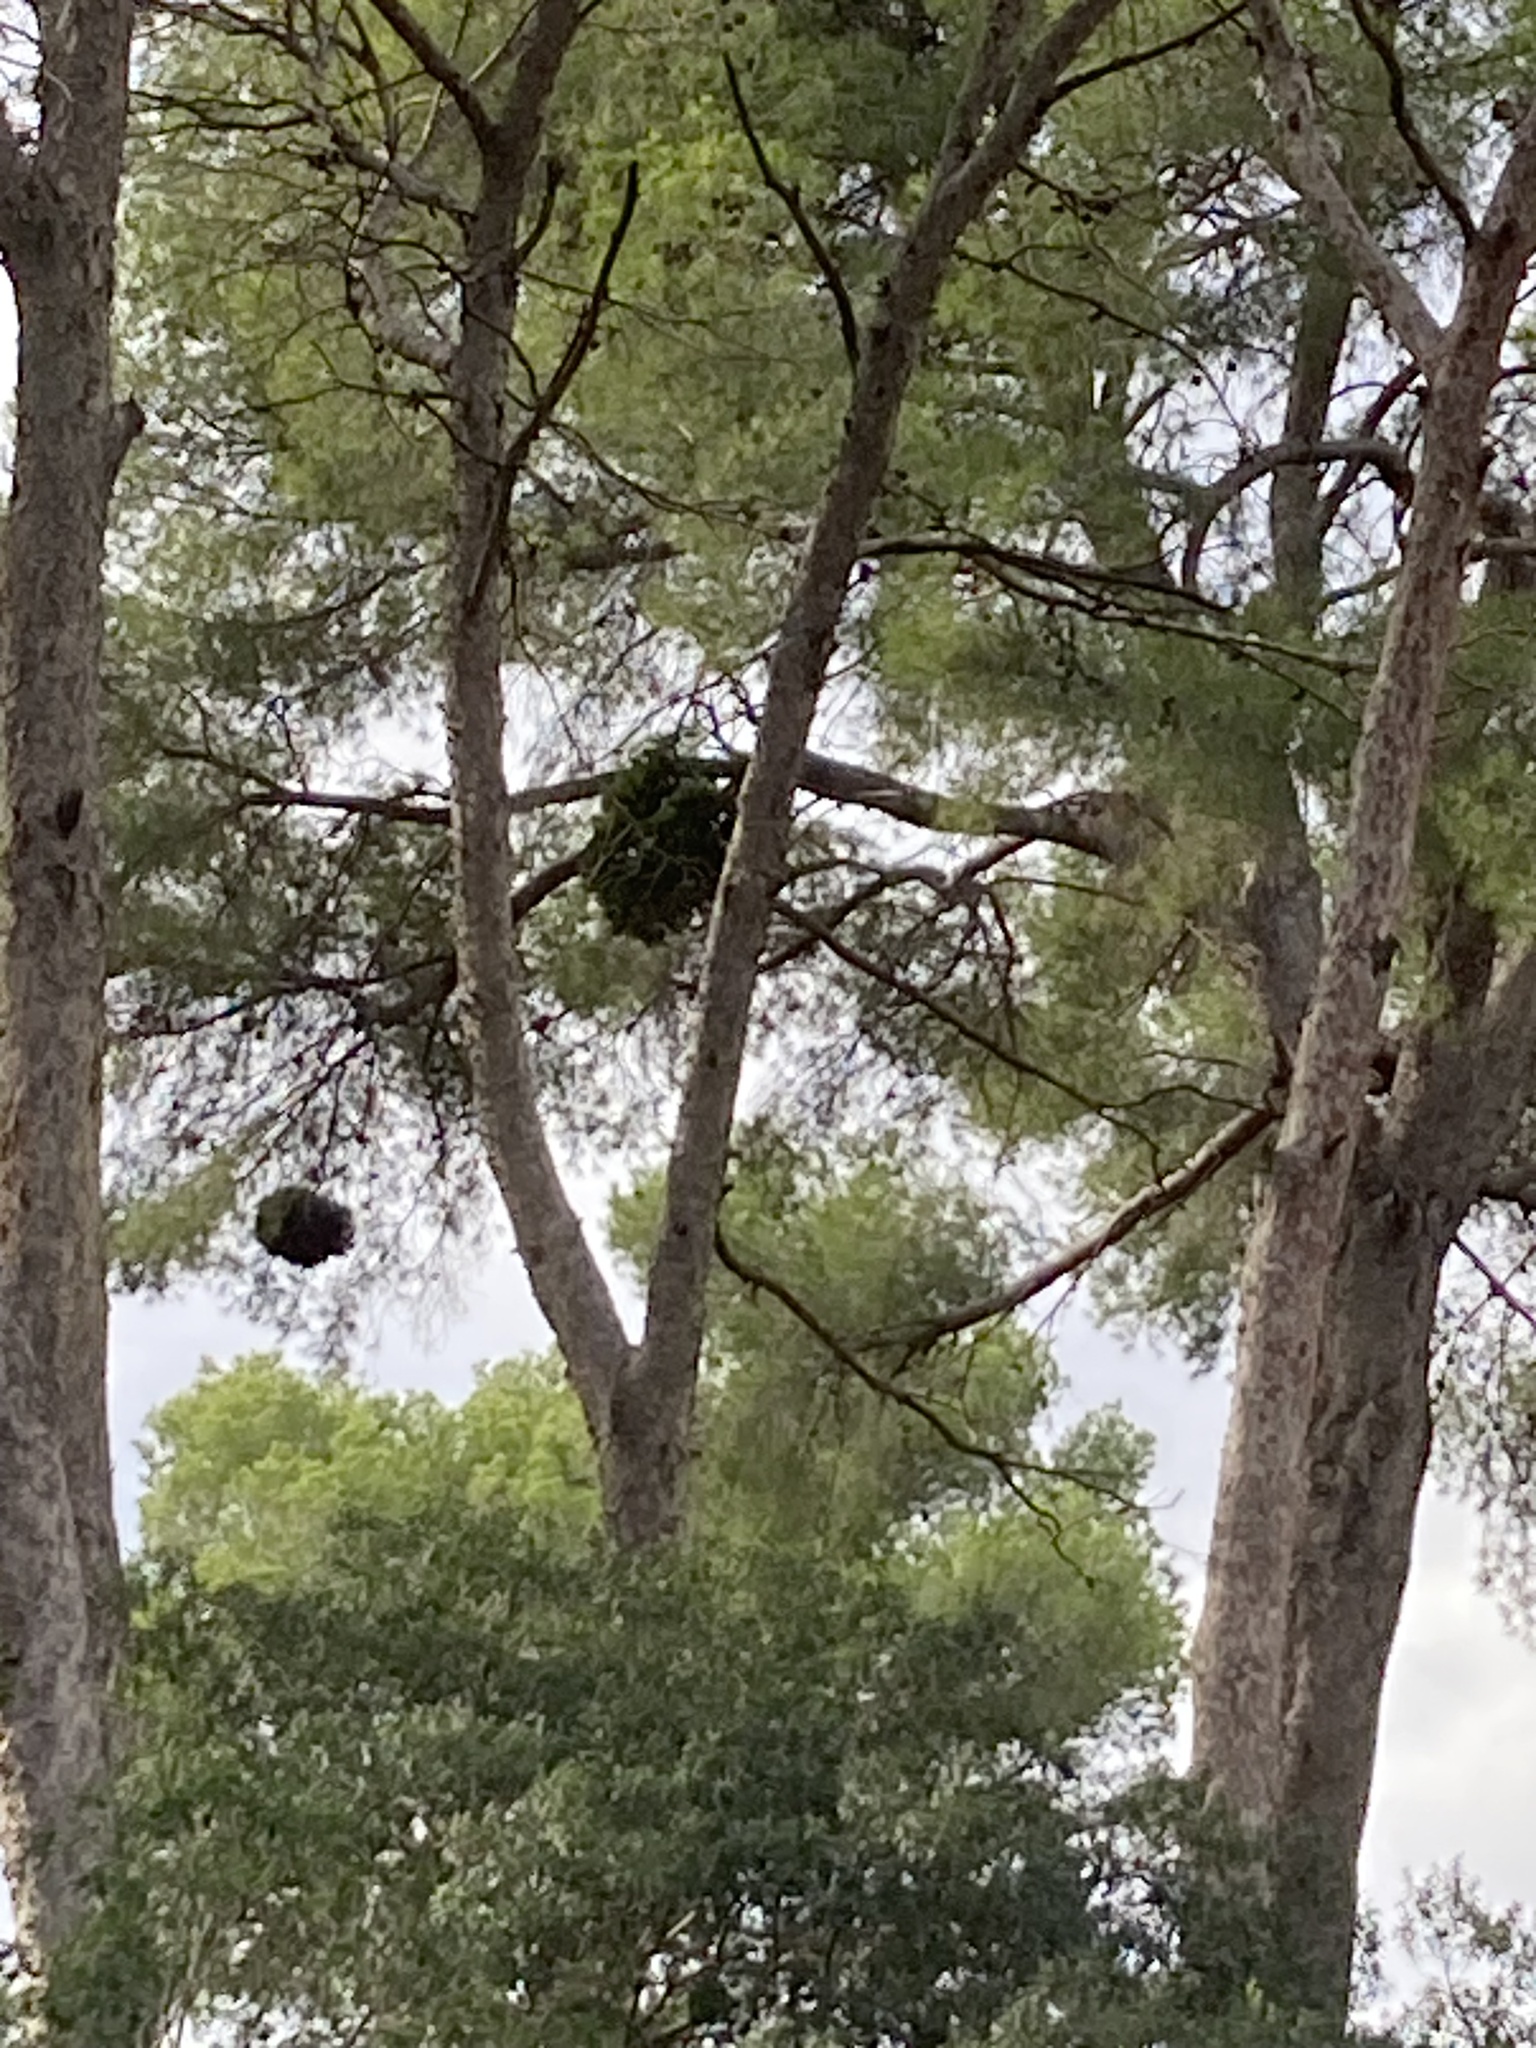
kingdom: Bacteria
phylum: Firmicutes
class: Bacilli
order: Acholeplasmatales
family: Acholeplasmataceae
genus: Phytoplasma
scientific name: Phytoplasma pini
